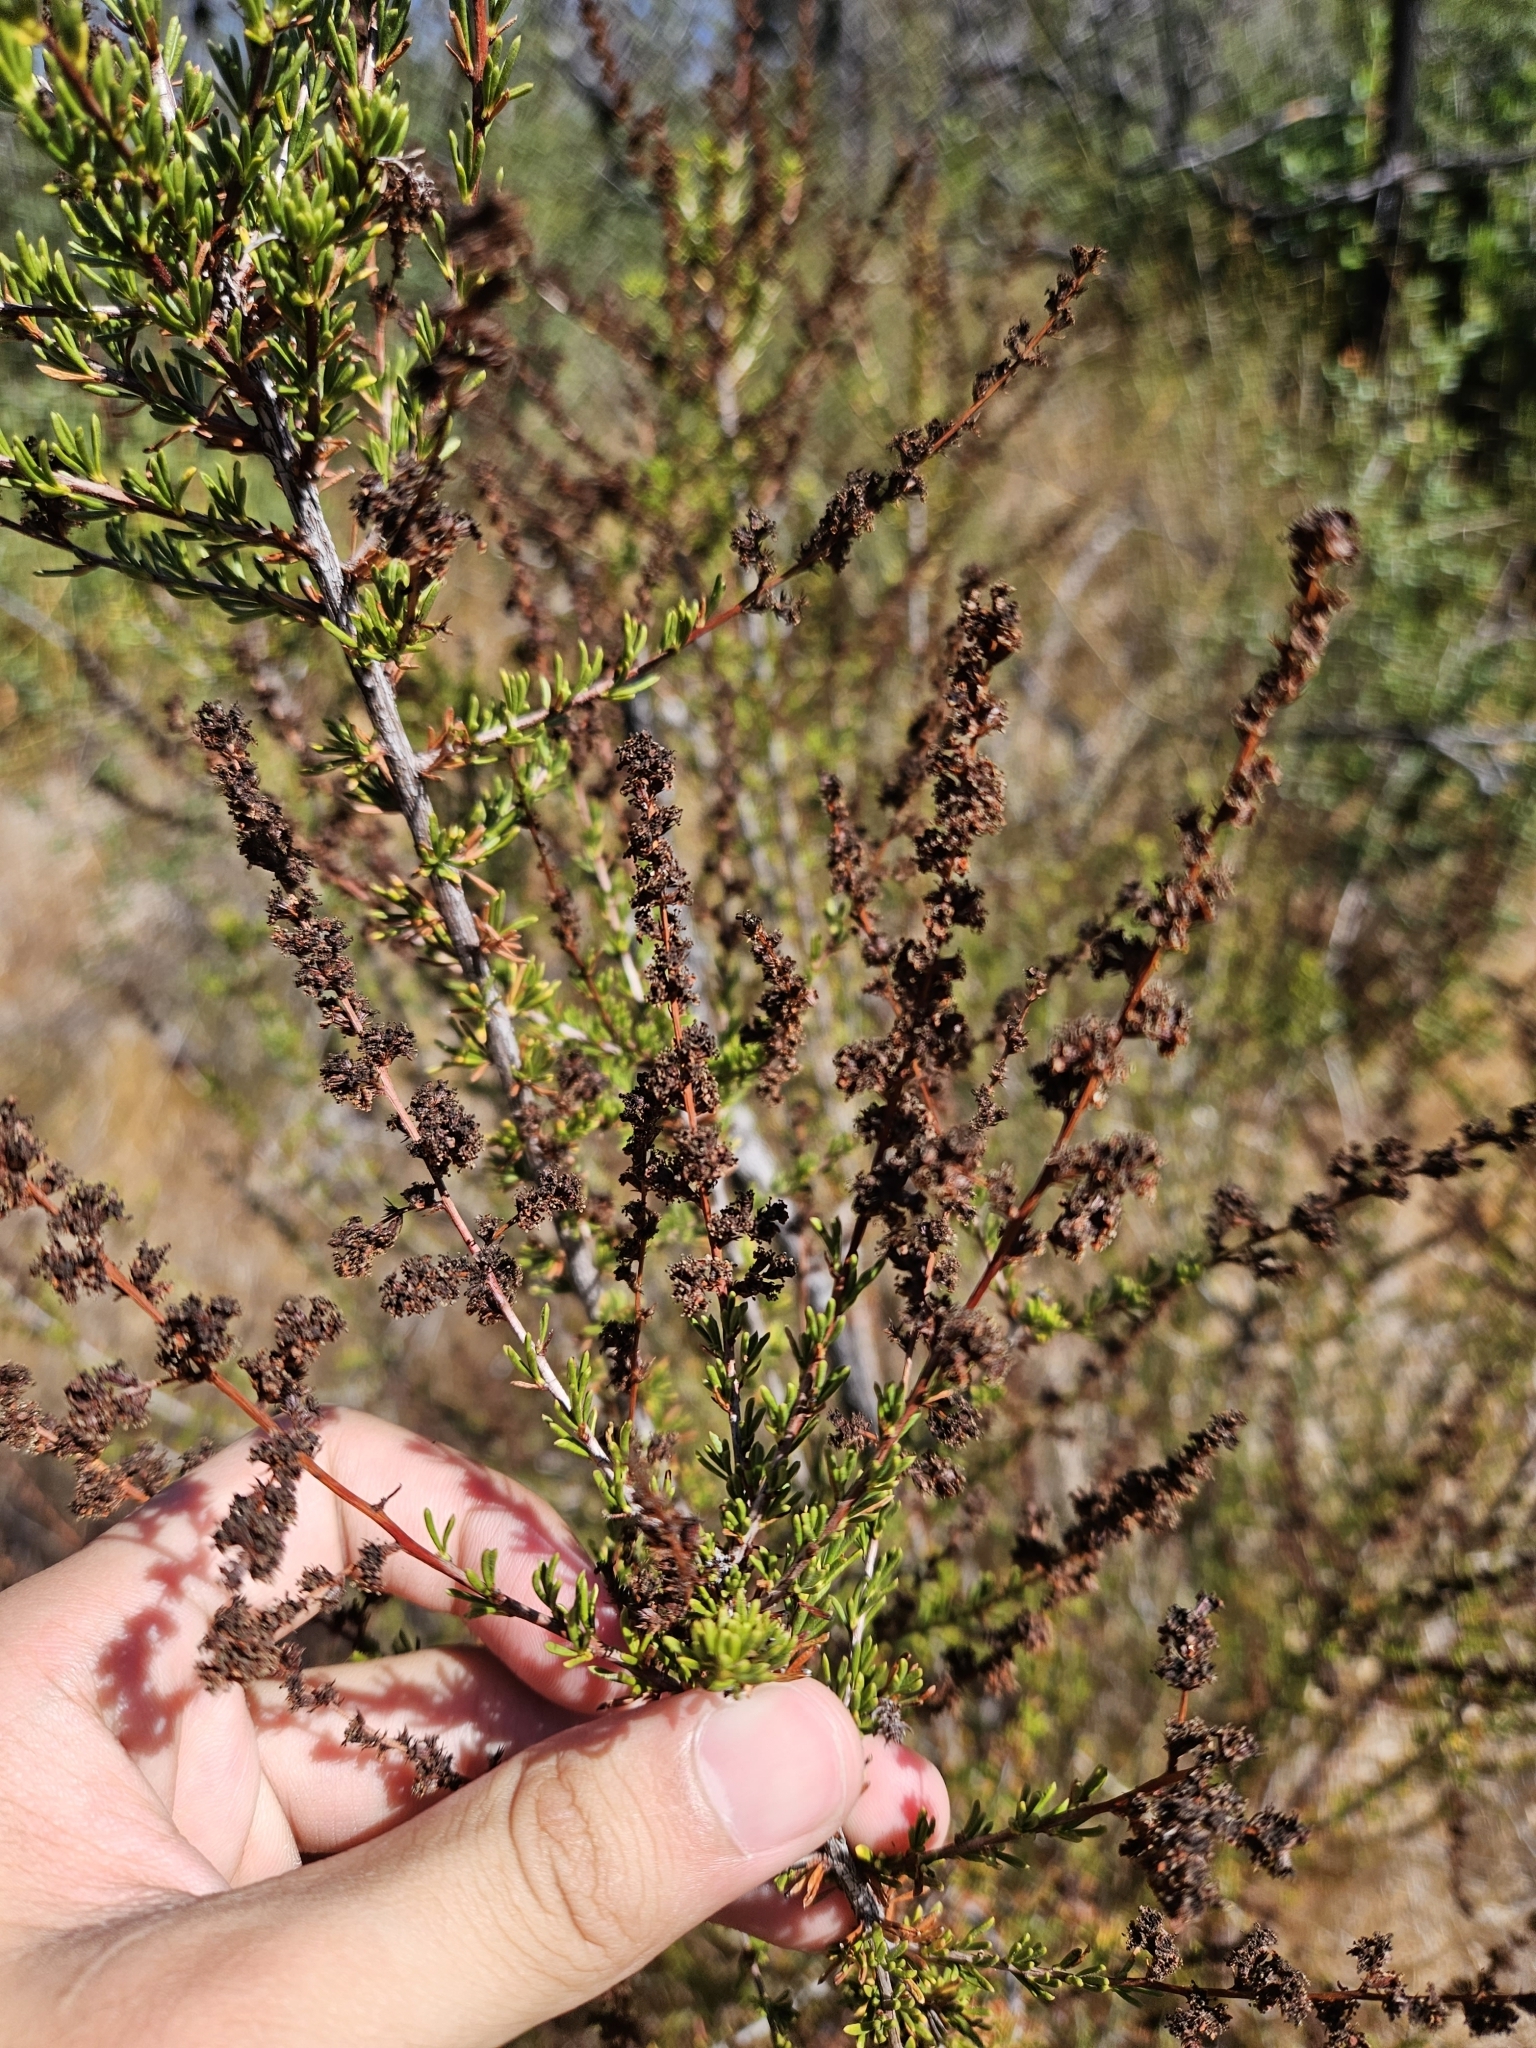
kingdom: Plantae
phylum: Tracheophyta
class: Magnoliopsida
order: Rosales
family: Rosaceae
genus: Adenostoma
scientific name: Adenostoma fasciculatum
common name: Chamise
